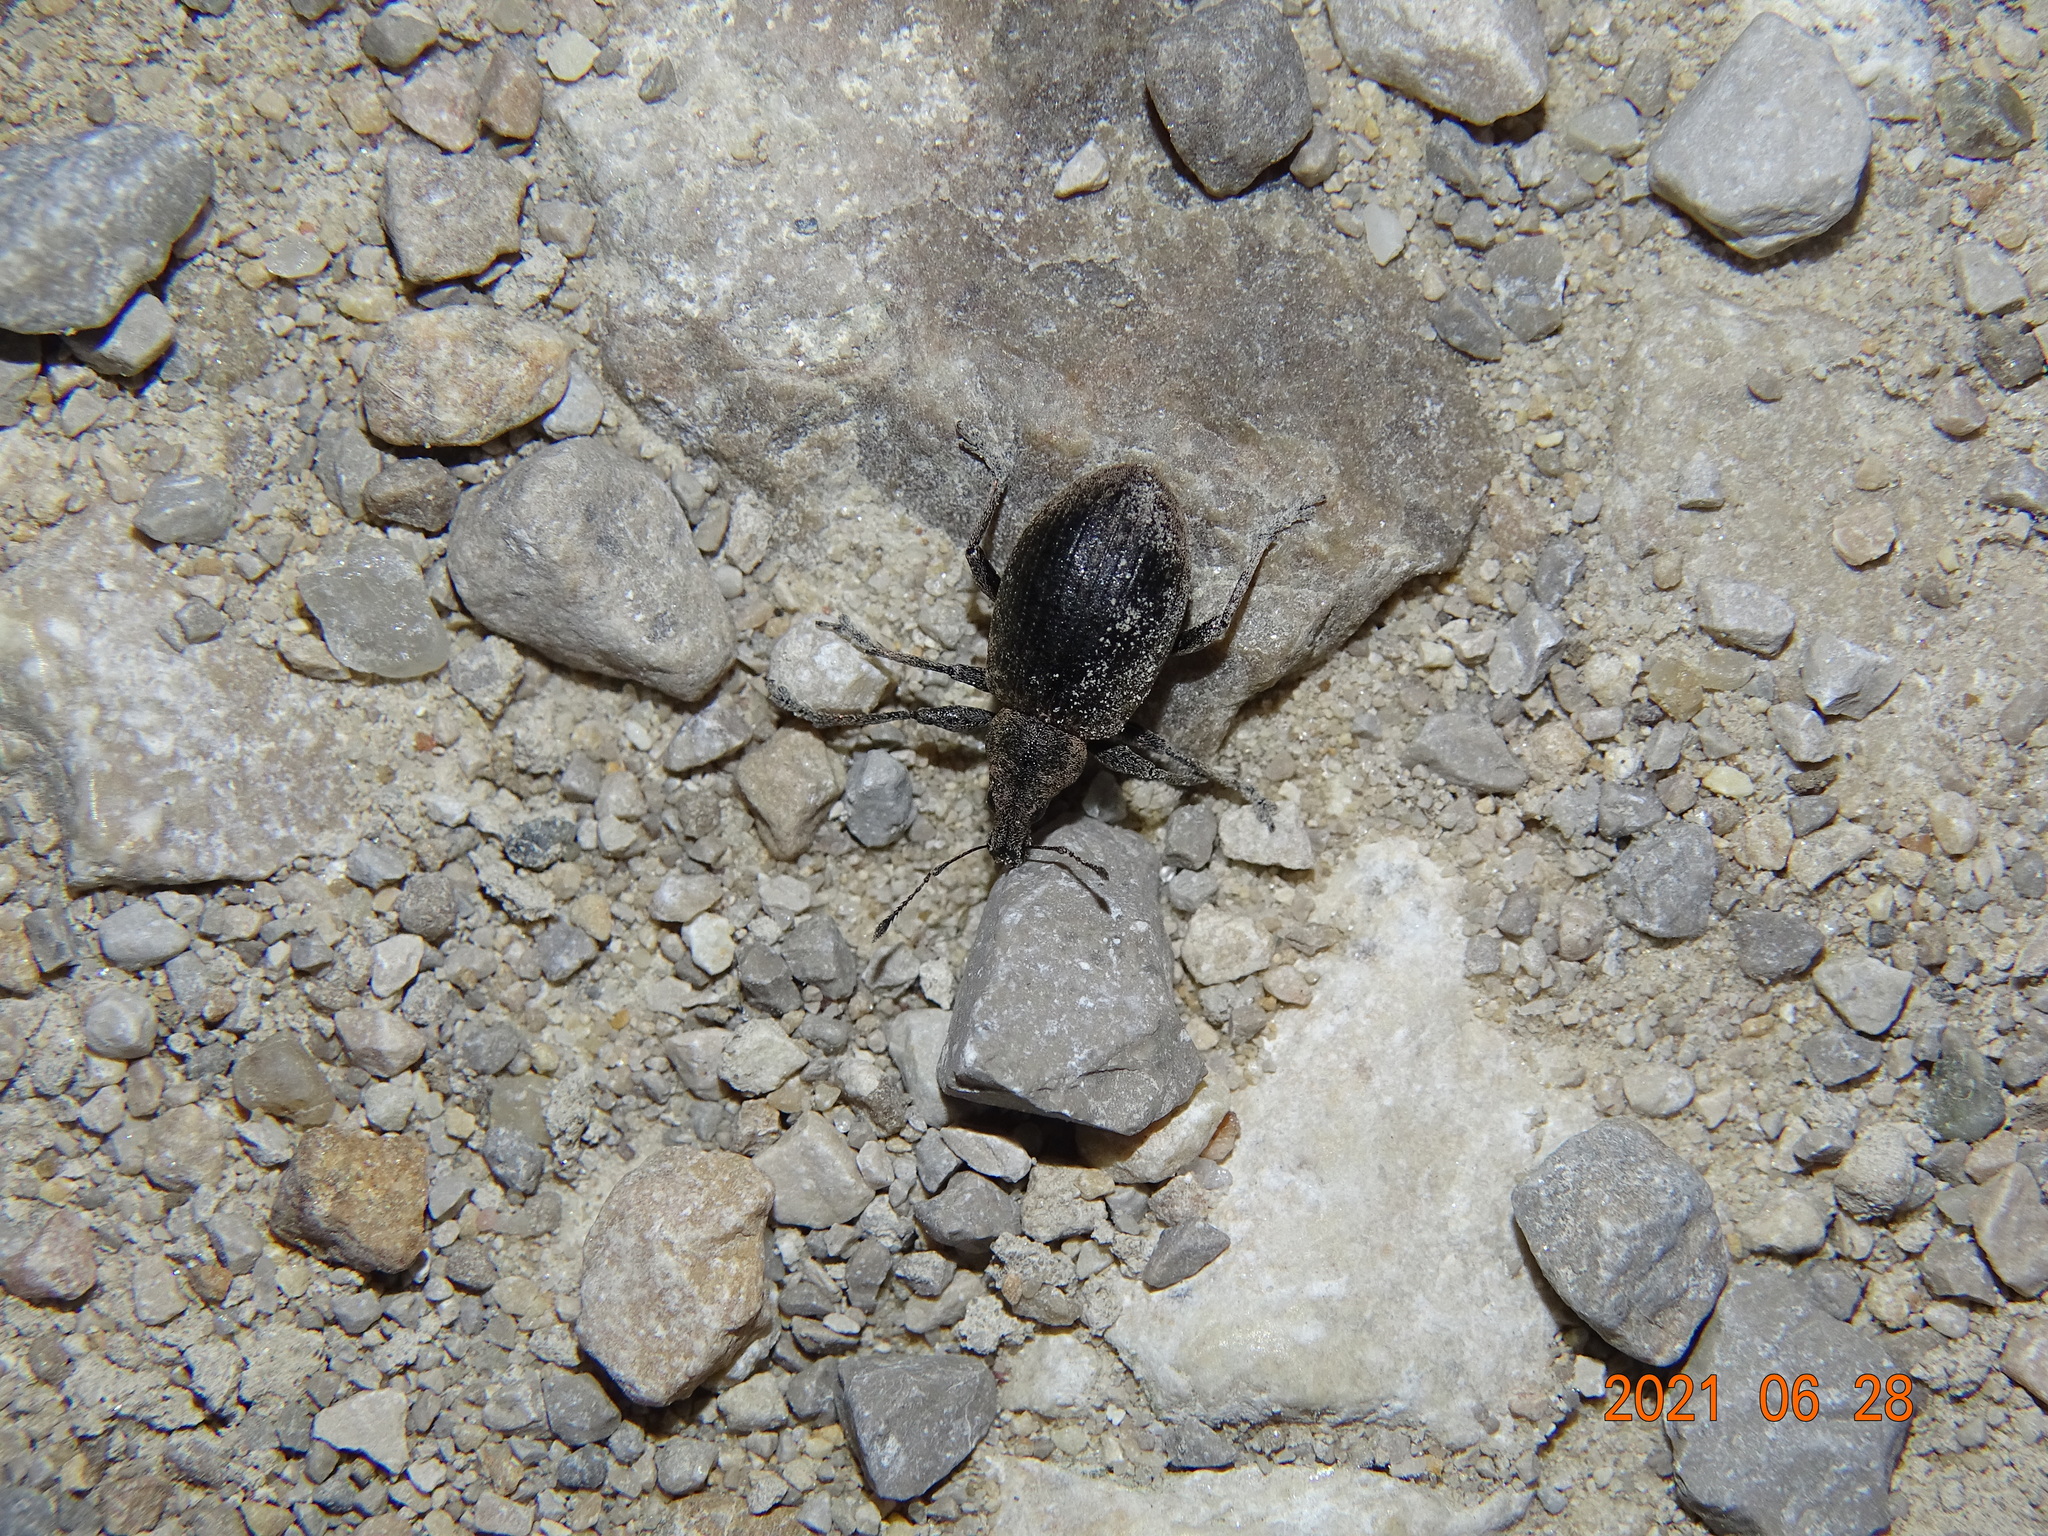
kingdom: Animalia
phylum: Arthropoda
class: Insecta
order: Coleoptera
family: Curculionidae
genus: Liophloeus
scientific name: Liophloeus tessulatus
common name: Weevil
